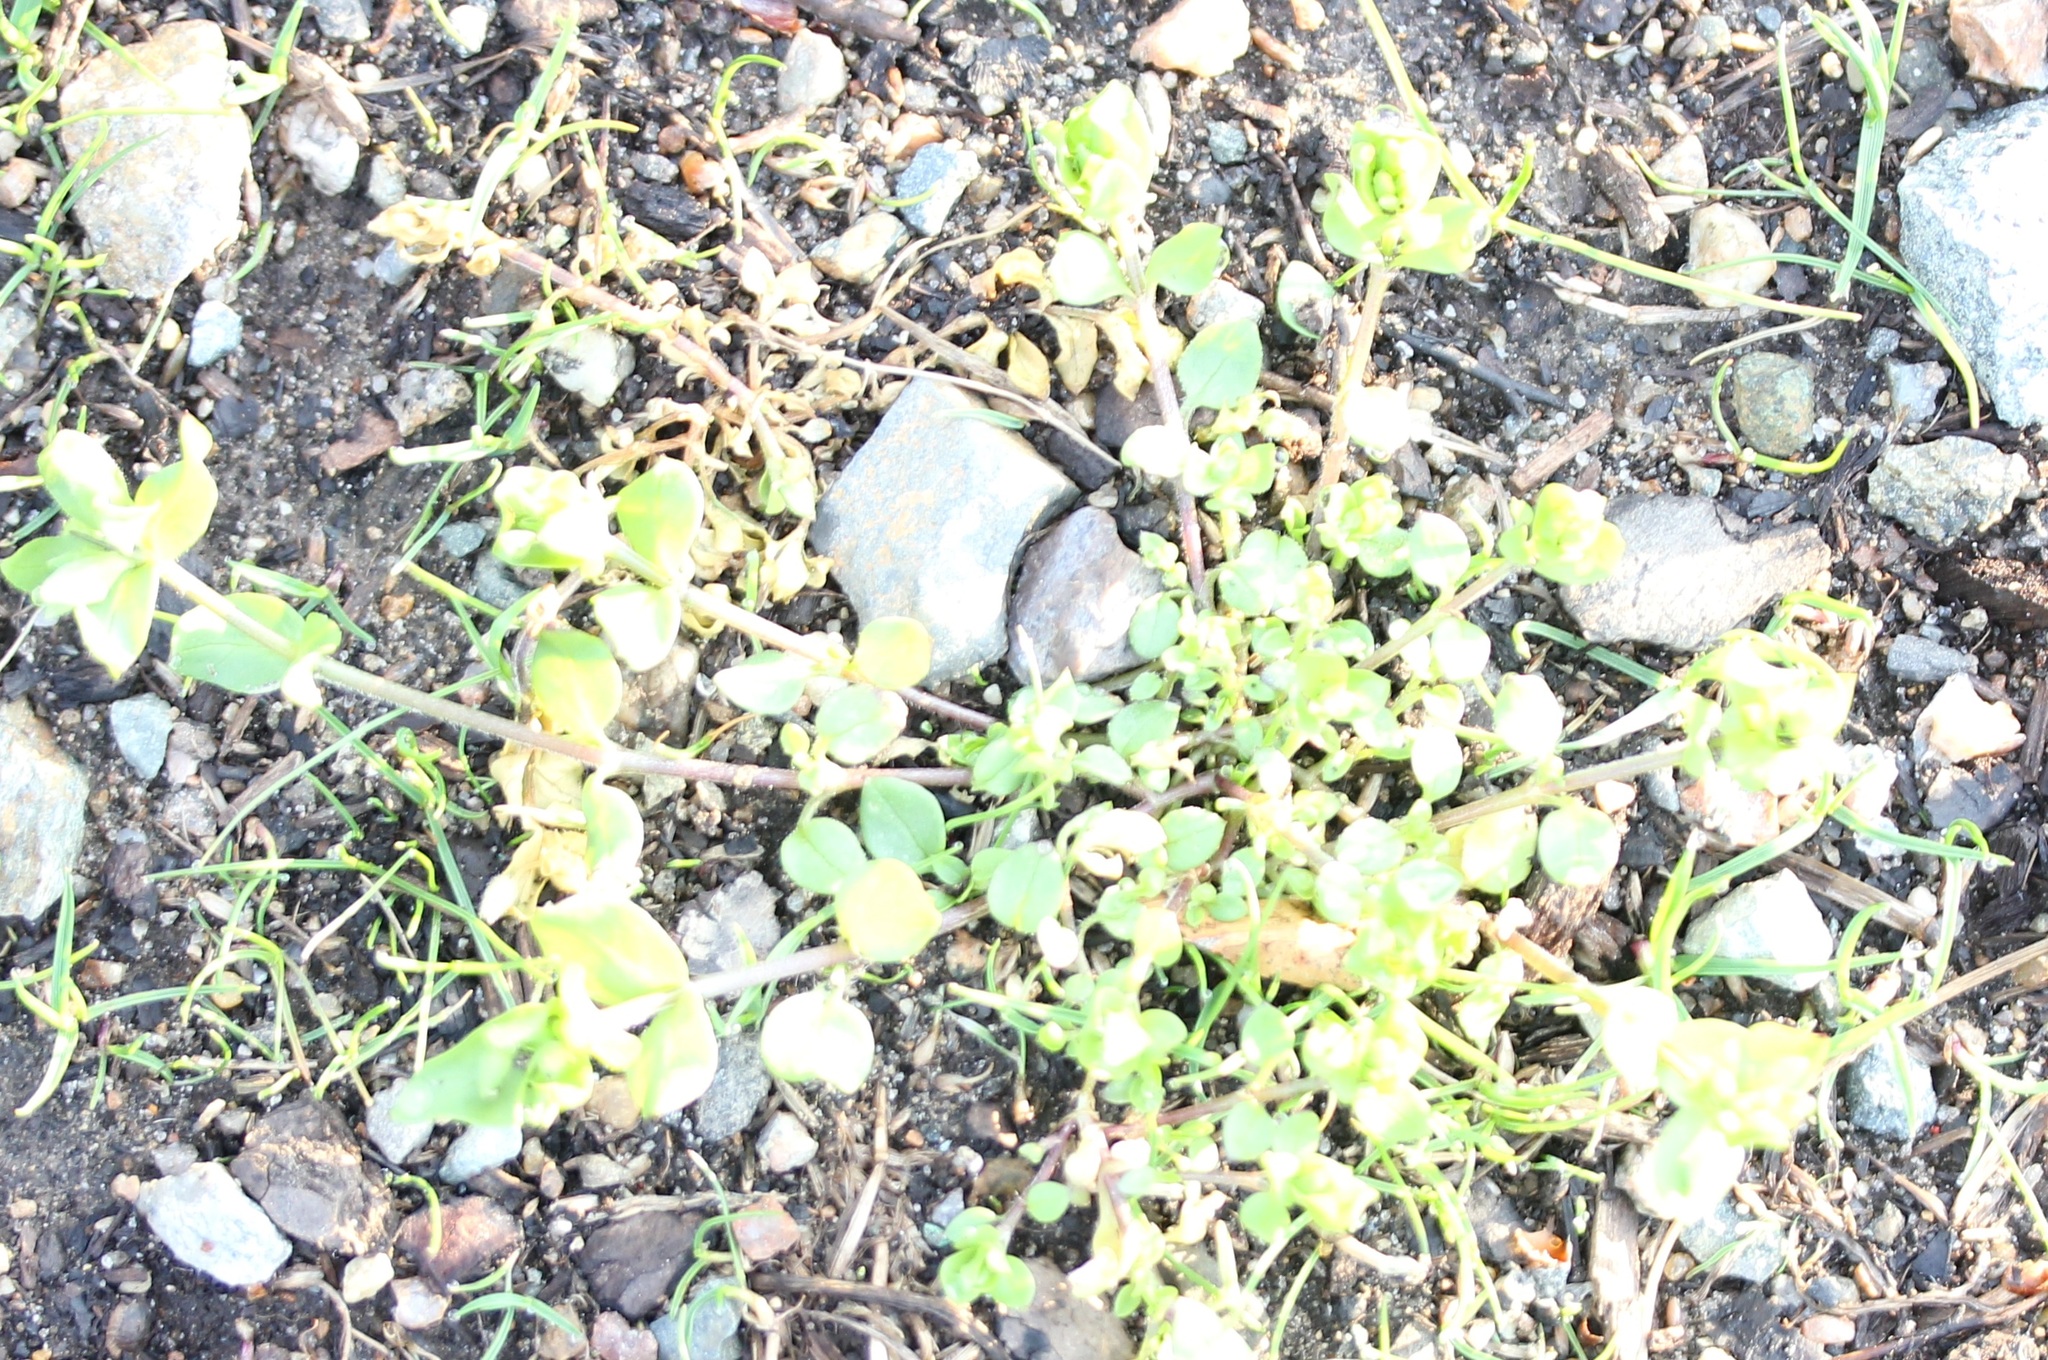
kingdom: Plantae
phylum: Tracheophyta
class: Magnoliopsida
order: Caryophyllales
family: Caryophyllaceae
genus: Stellaria
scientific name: Stellaria media
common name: Common chickweed
